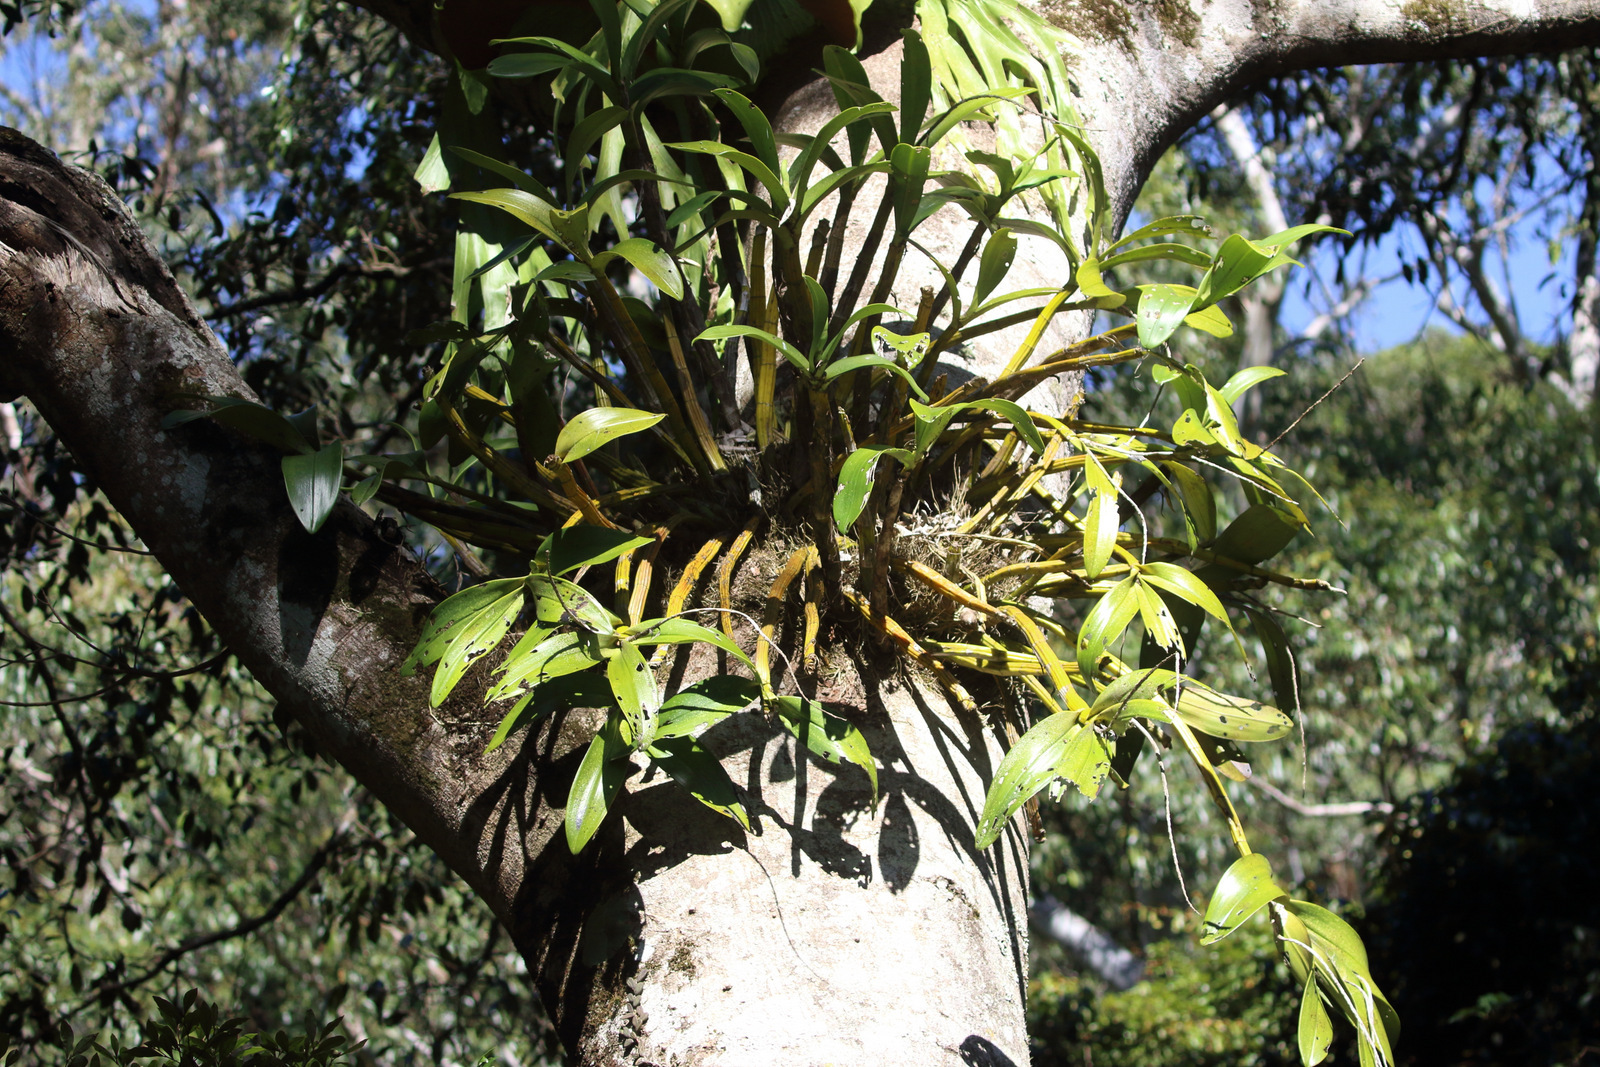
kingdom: Plantae
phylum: Tracheophyta
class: Liliopsida
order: Asparagales
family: Orchidaceae
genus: Dendrobium
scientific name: Dendrobium gracillimum
